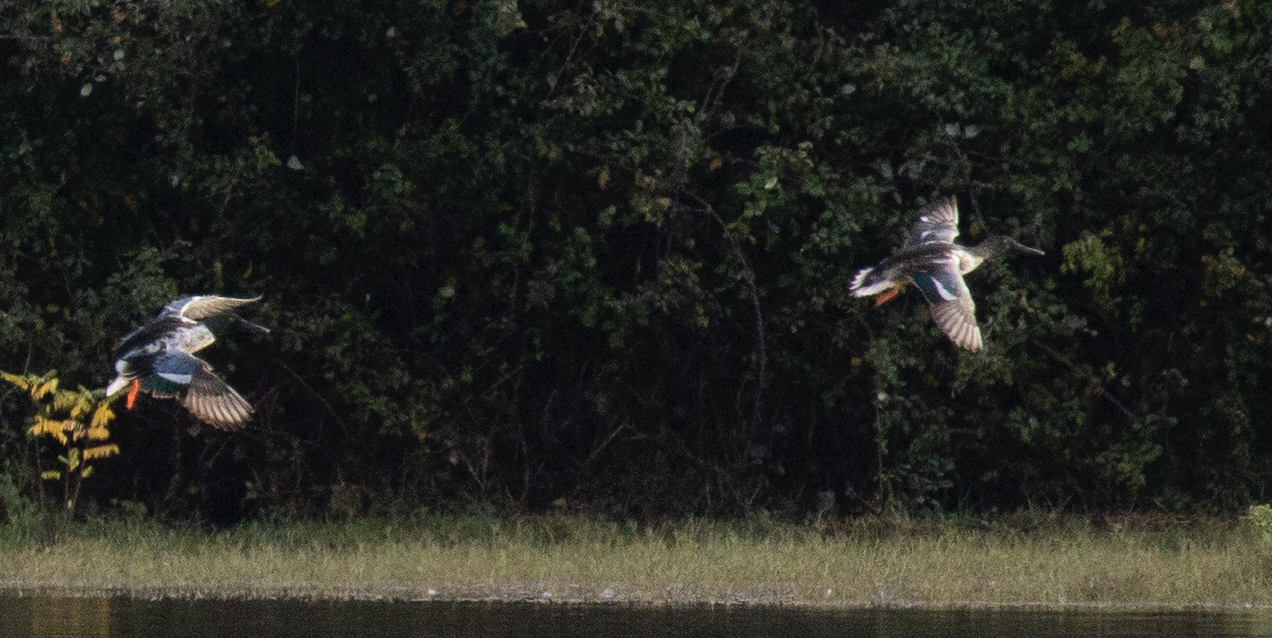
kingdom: Animalia
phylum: Chordata
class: Aves
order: Anseriformes
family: Anatidae
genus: Spatula
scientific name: Spatula clypeata
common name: Northern shoveler
